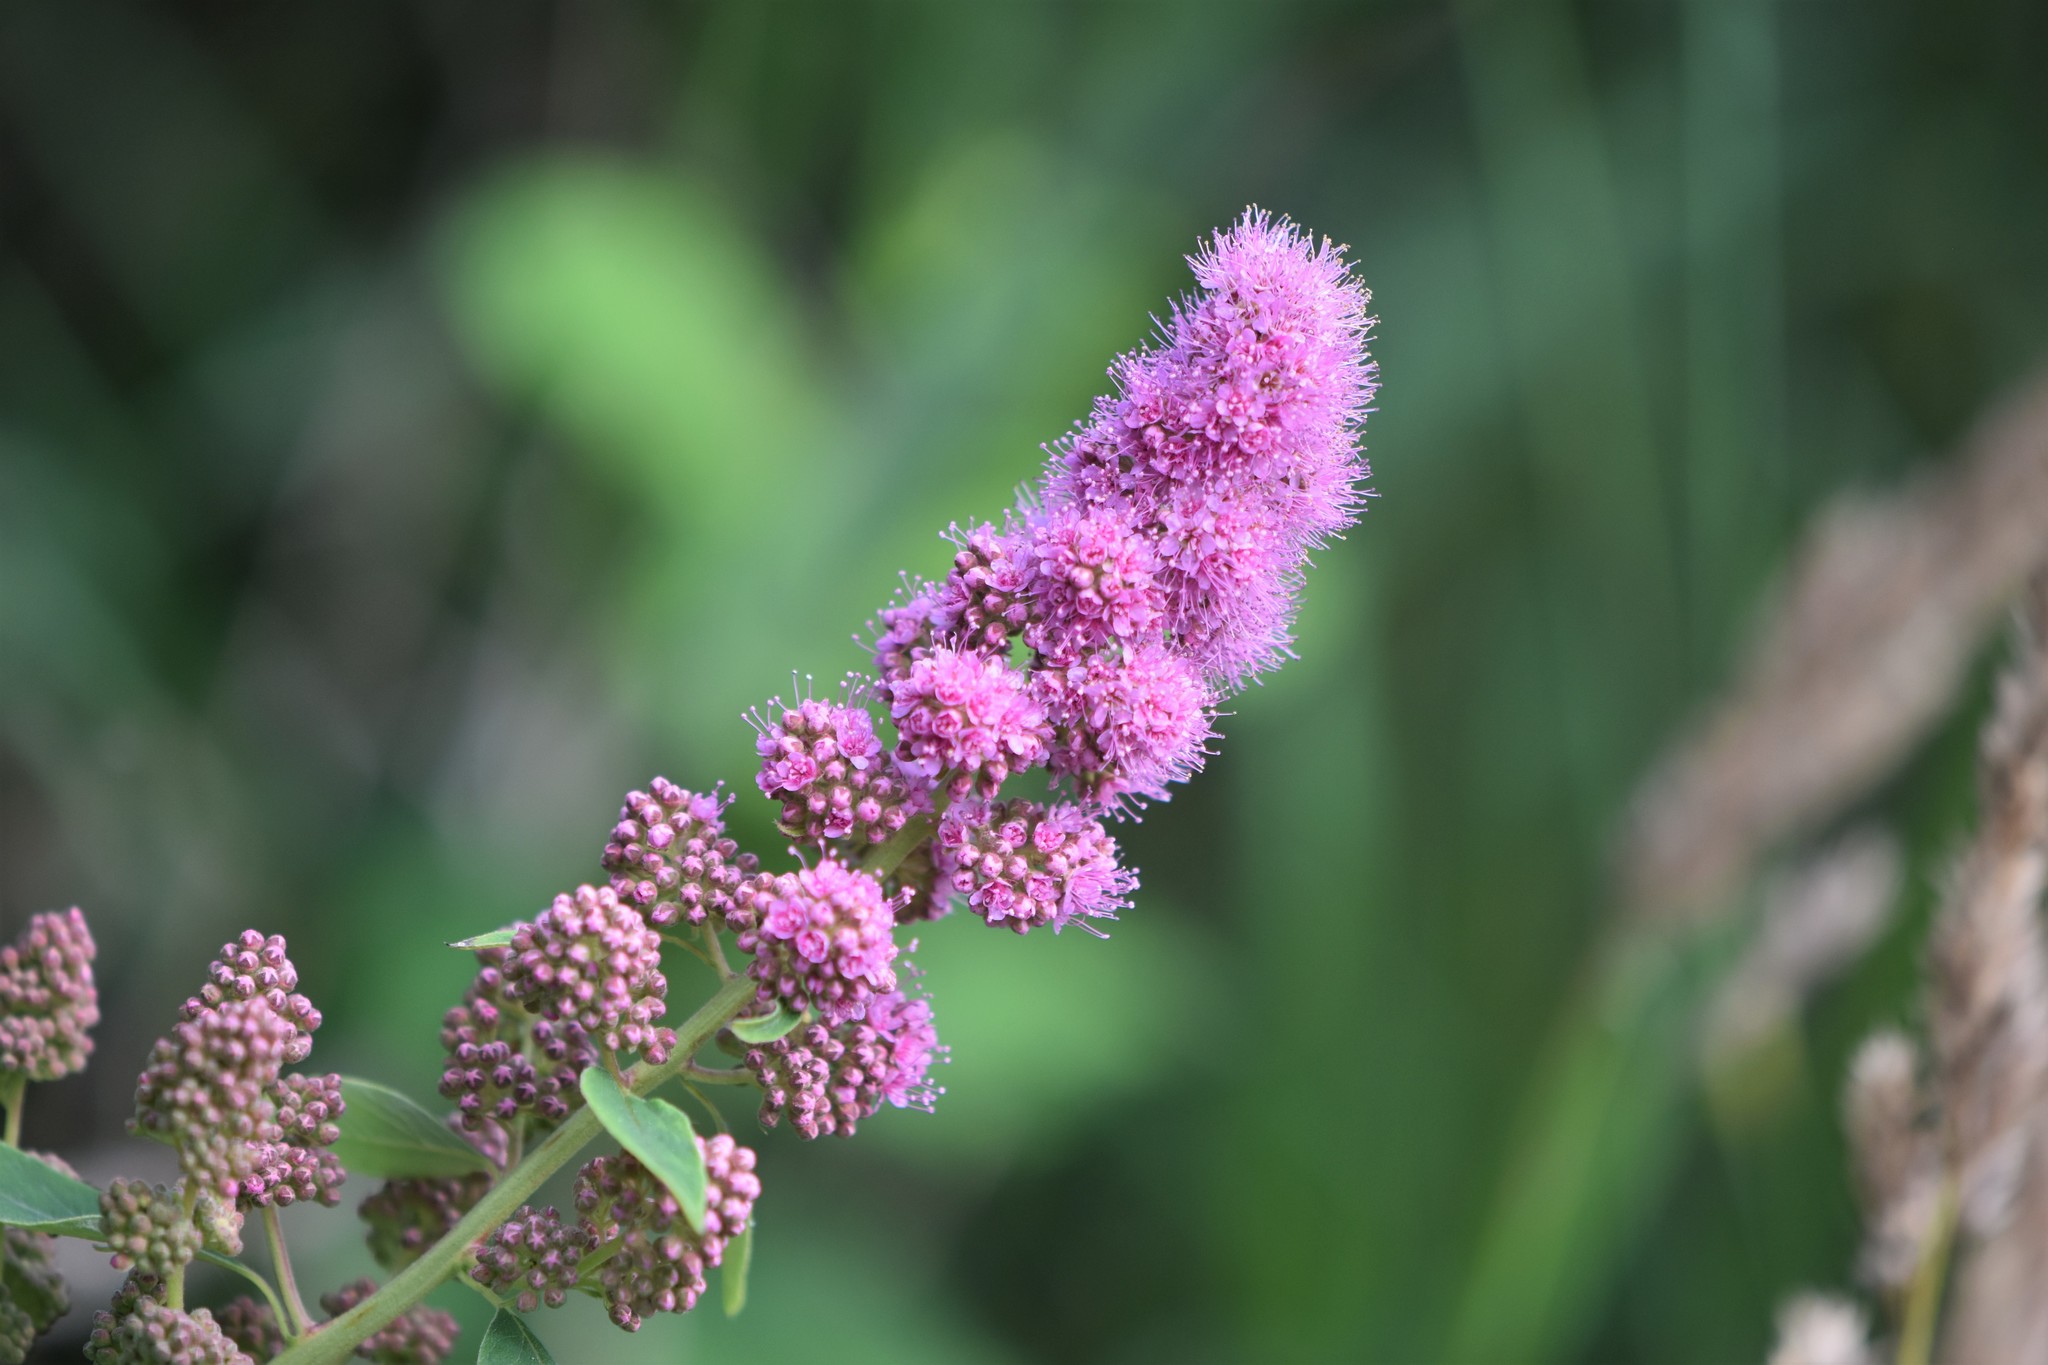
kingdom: Plantae
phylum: Tracheophyta
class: Magnoliopsida
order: Rosales
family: Rosaceae
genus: Spiraea
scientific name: Spiraea douglasii
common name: Steeplebush
